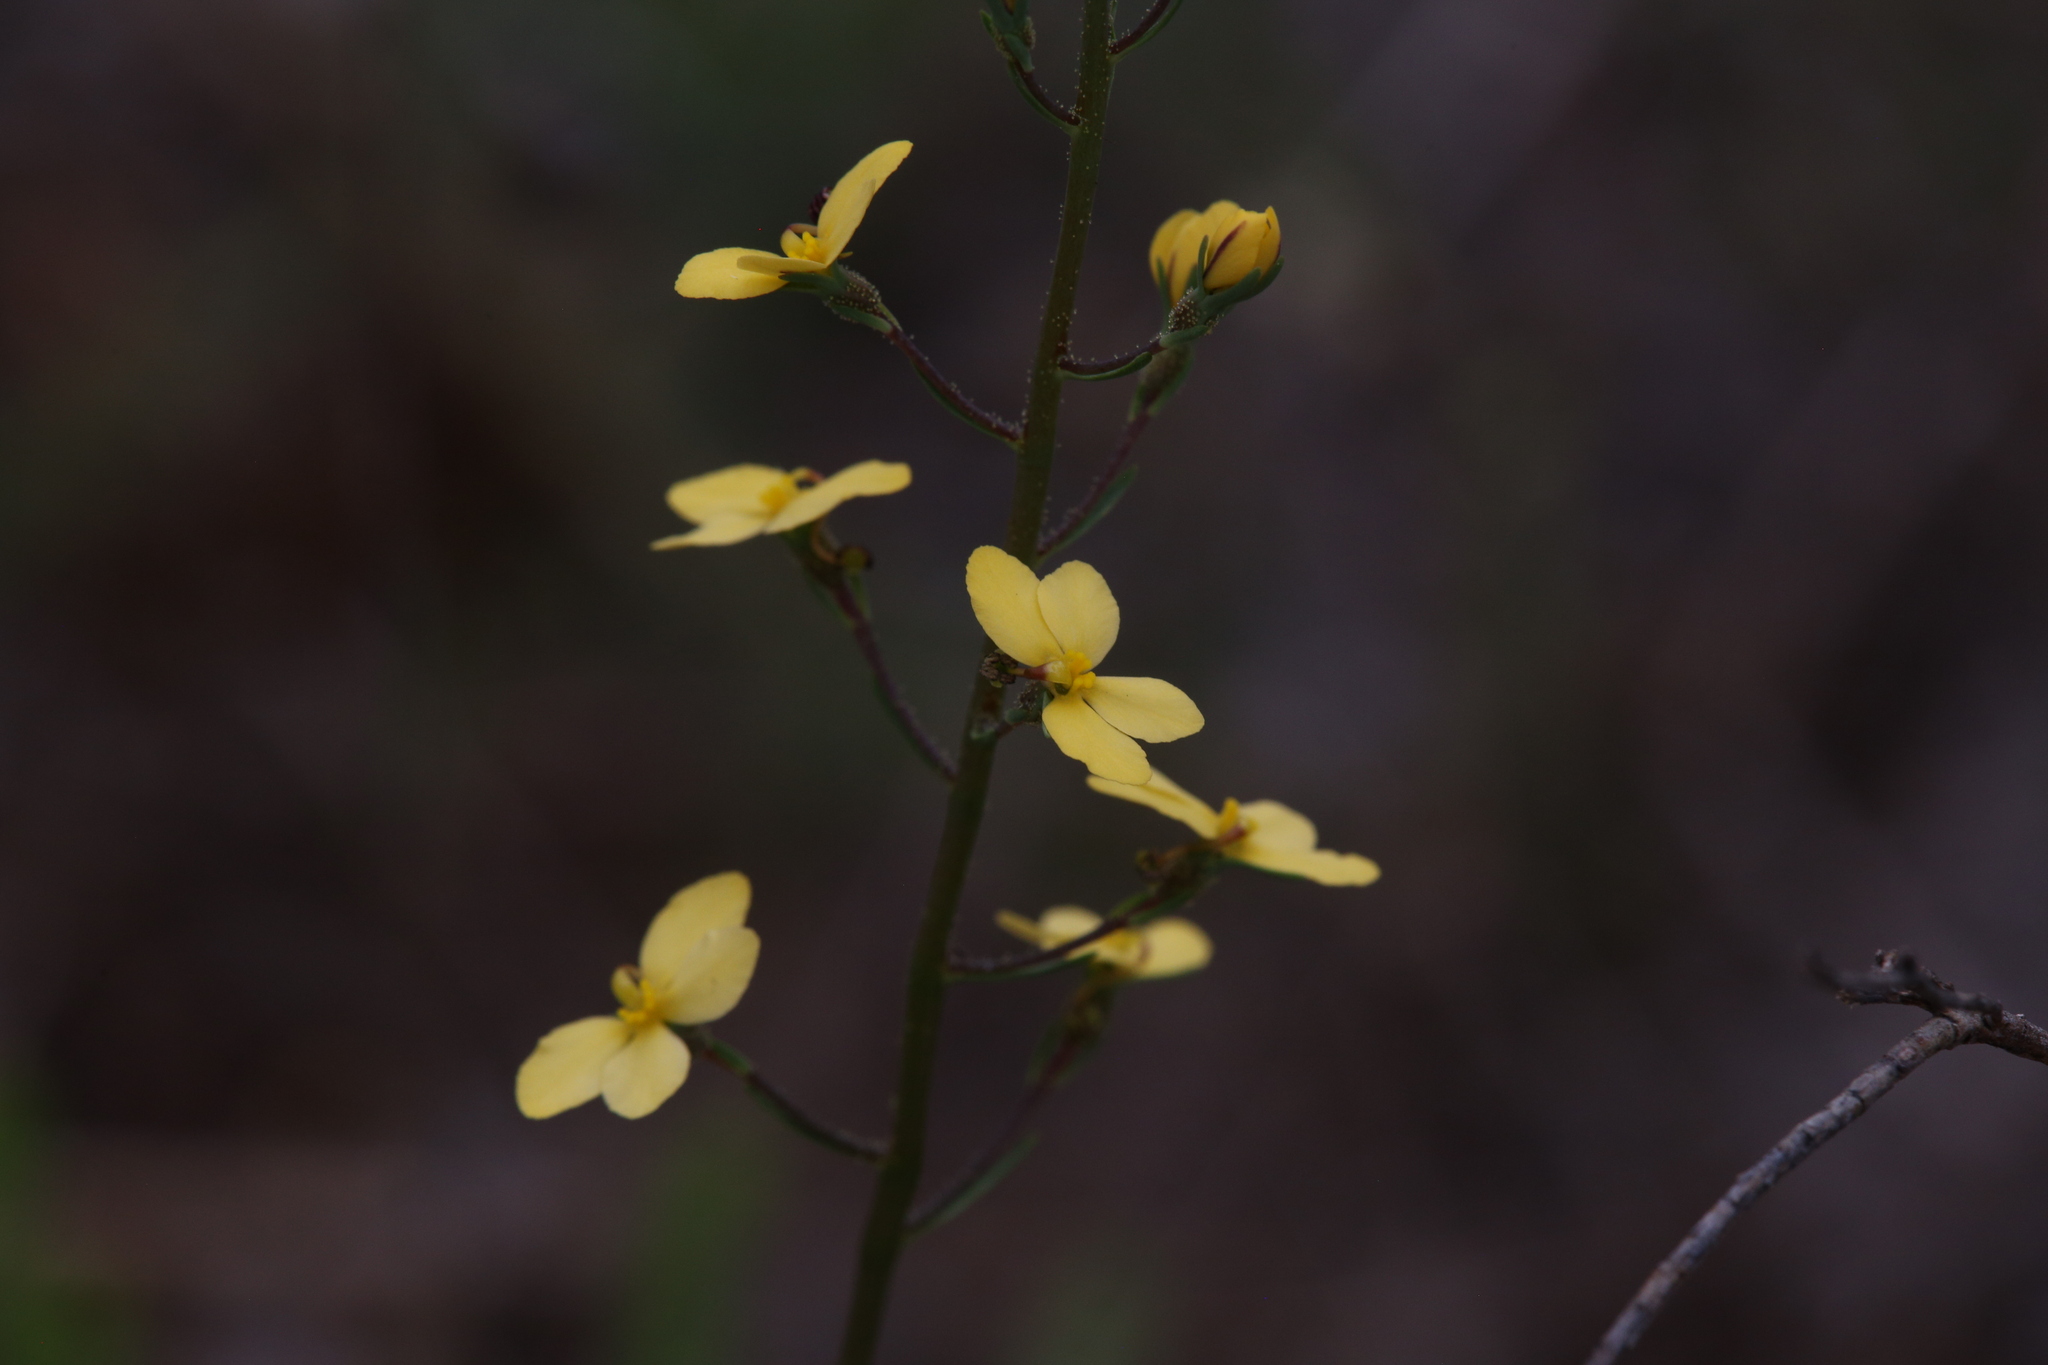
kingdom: Plantae
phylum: Tracheophyta
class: Magnoliopsida
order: Asterales
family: Stylidiaceae
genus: Stylidium
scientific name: Stylidium diuroides
